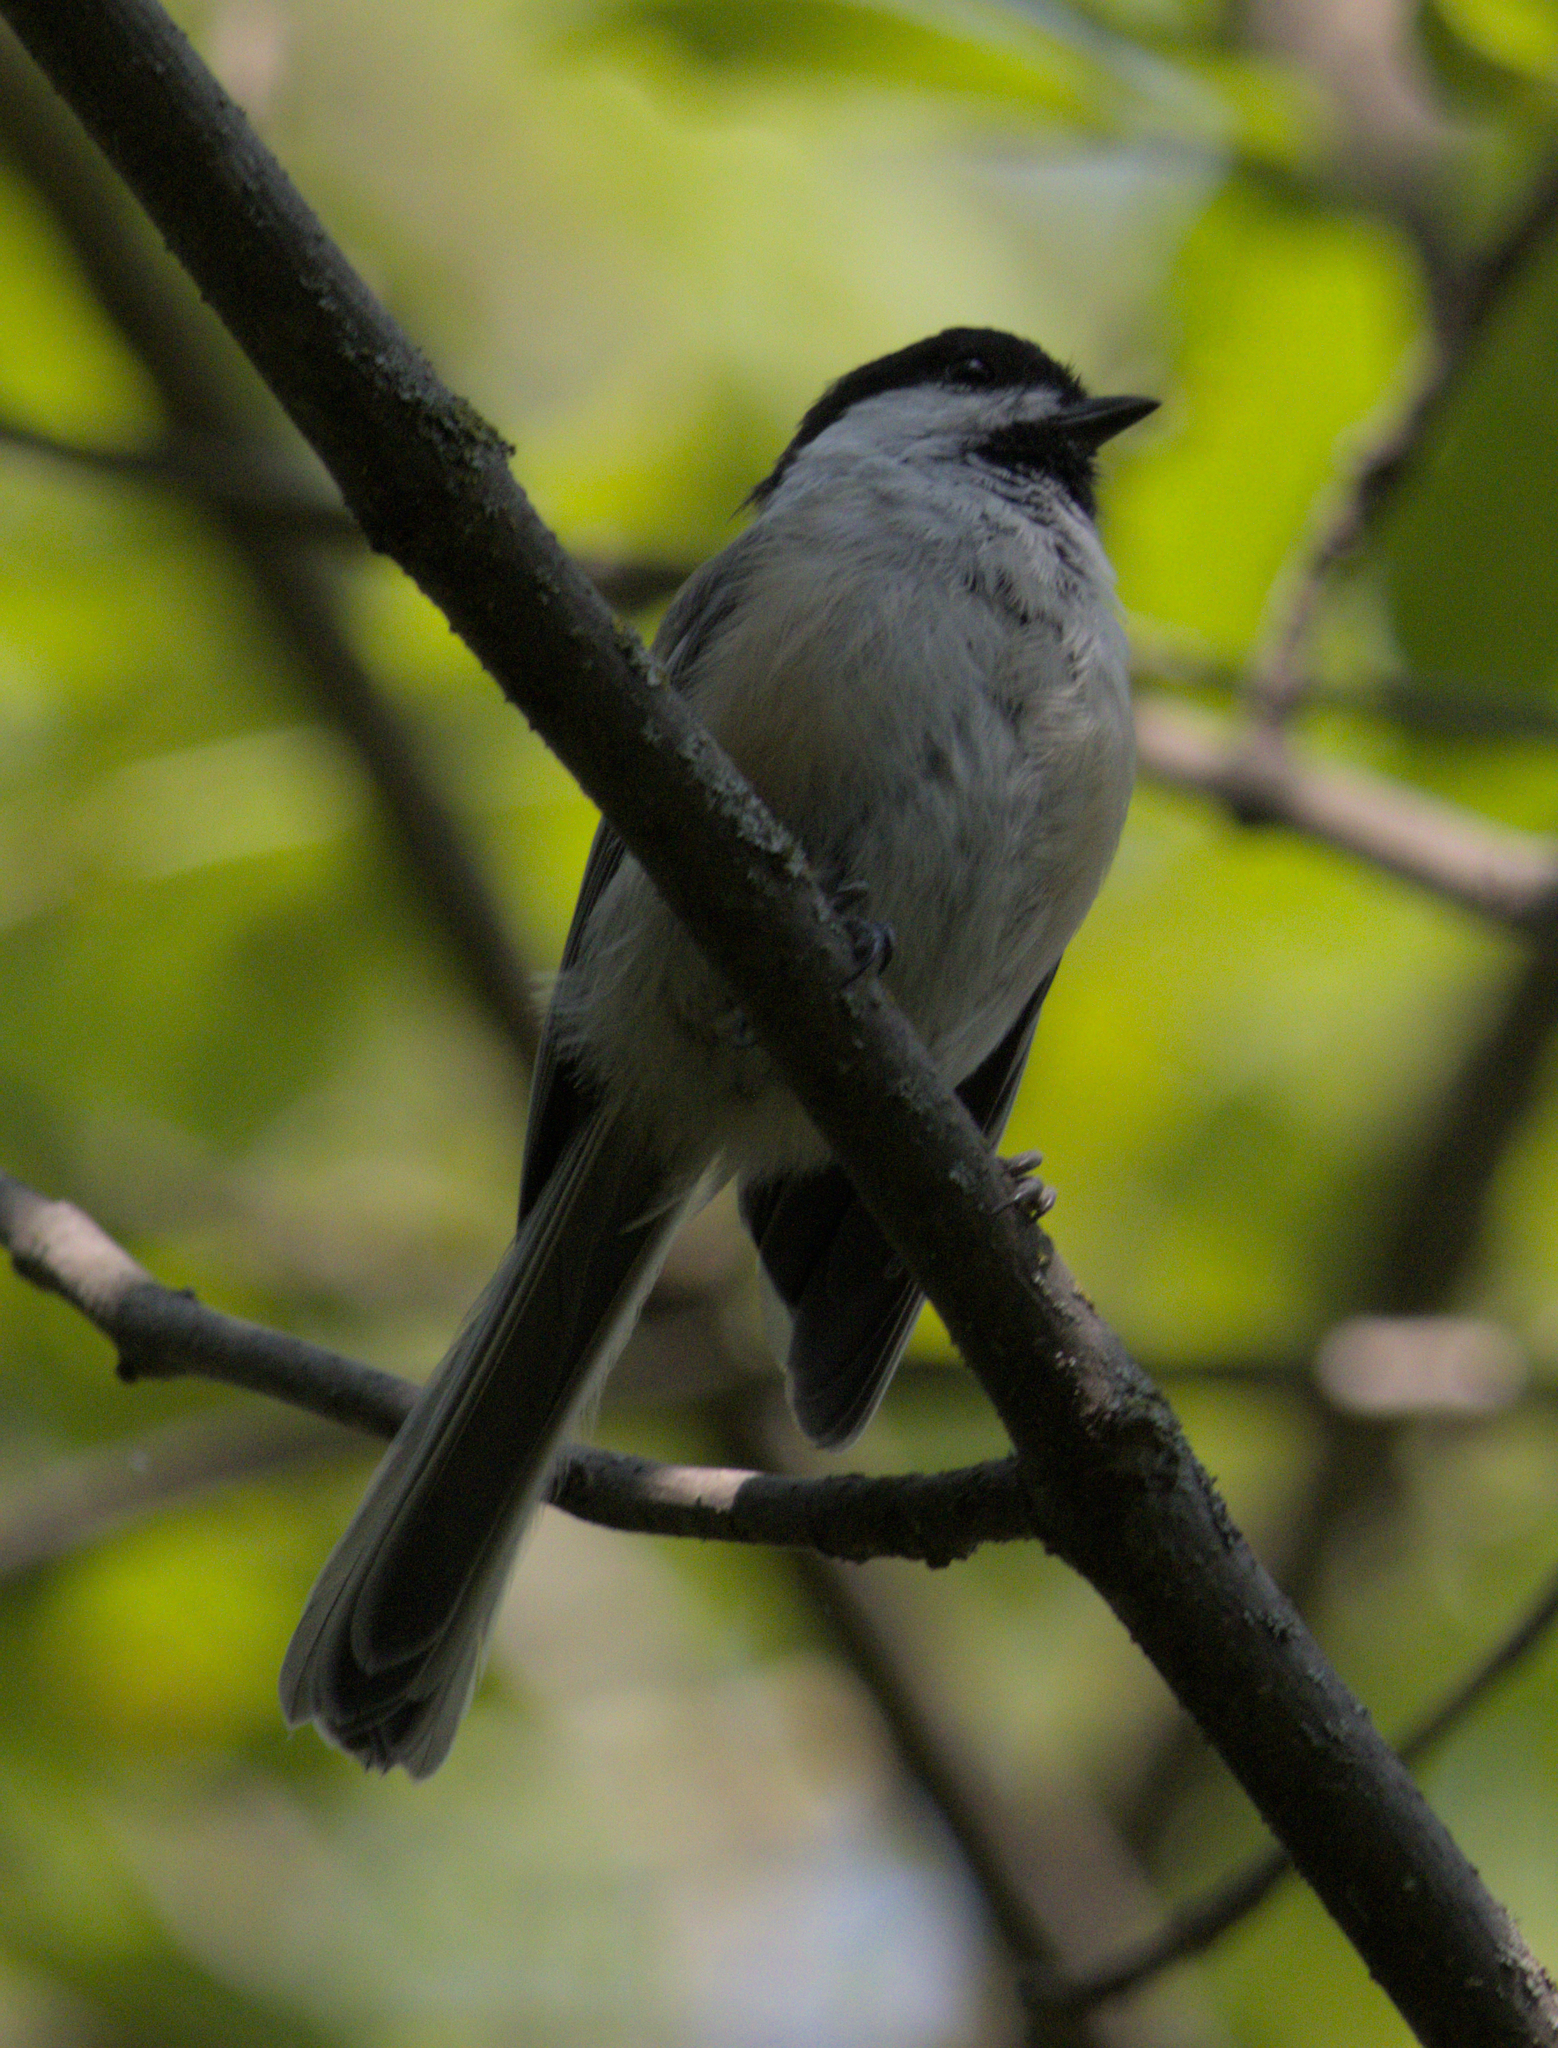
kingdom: Animalia
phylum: Chordata
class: Aves
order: Passeriformes
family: Paridae
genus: Poecile
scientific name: Poecile atricapillus
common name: Black-capped chickadee
